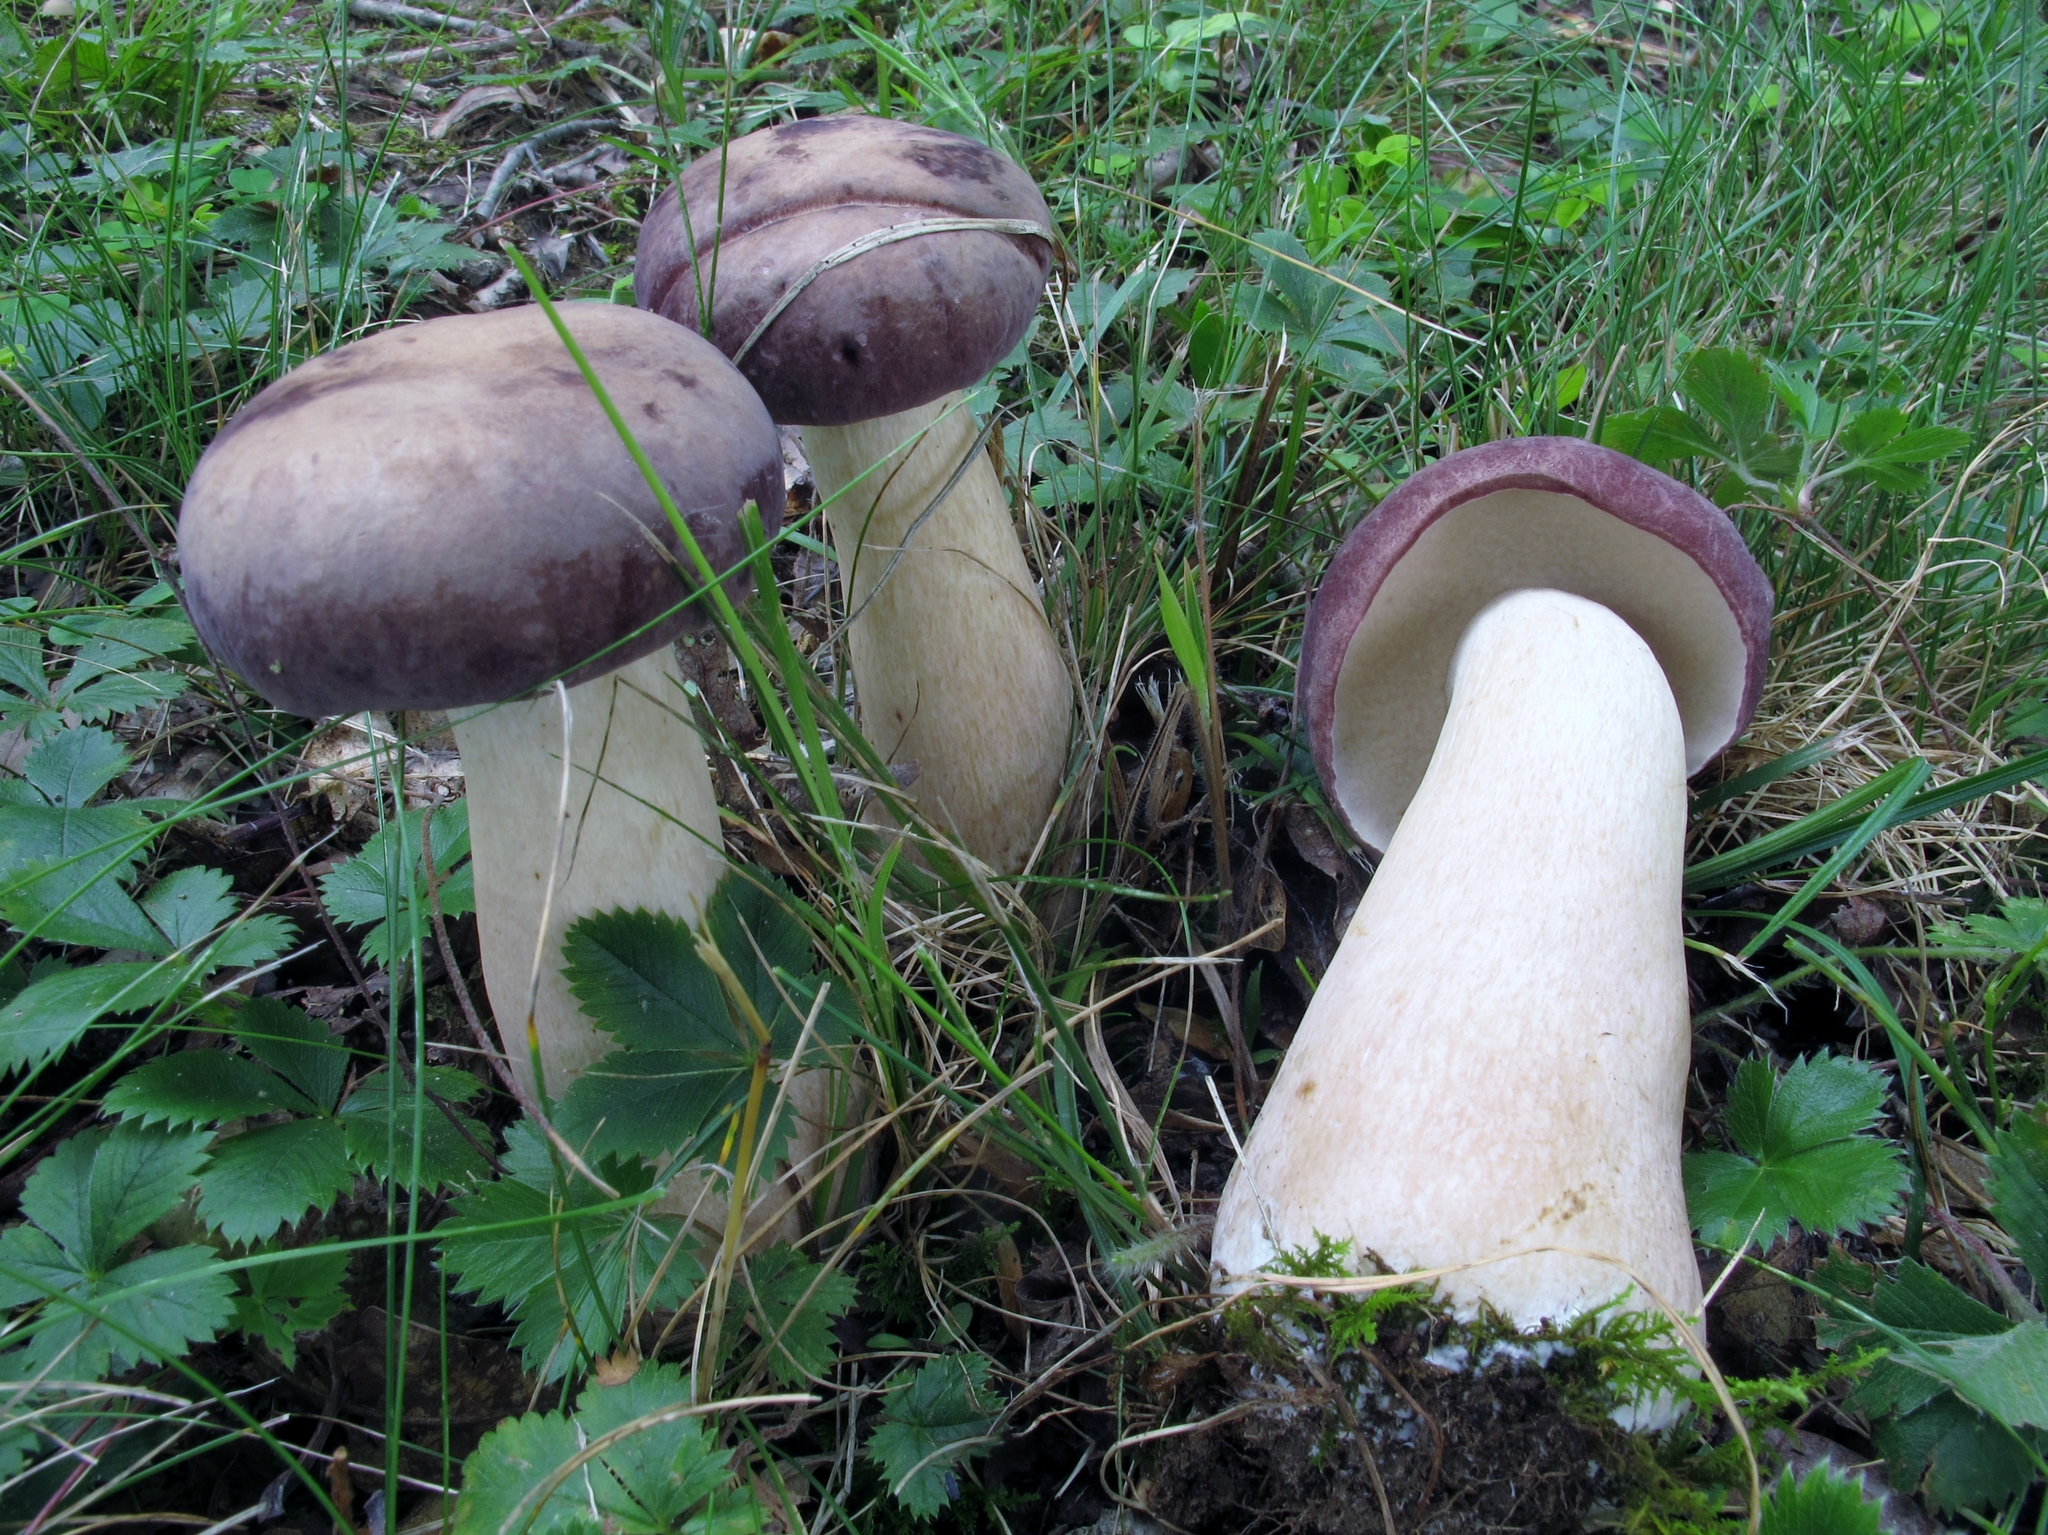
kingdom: Fungi
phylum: Basidiomycota
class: Agaricomycetes
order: Boletales
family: Boletaceae
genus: Tylopilus
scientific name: Tylopilus rubrobrunneus
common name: Reddish brown bitter bolete
